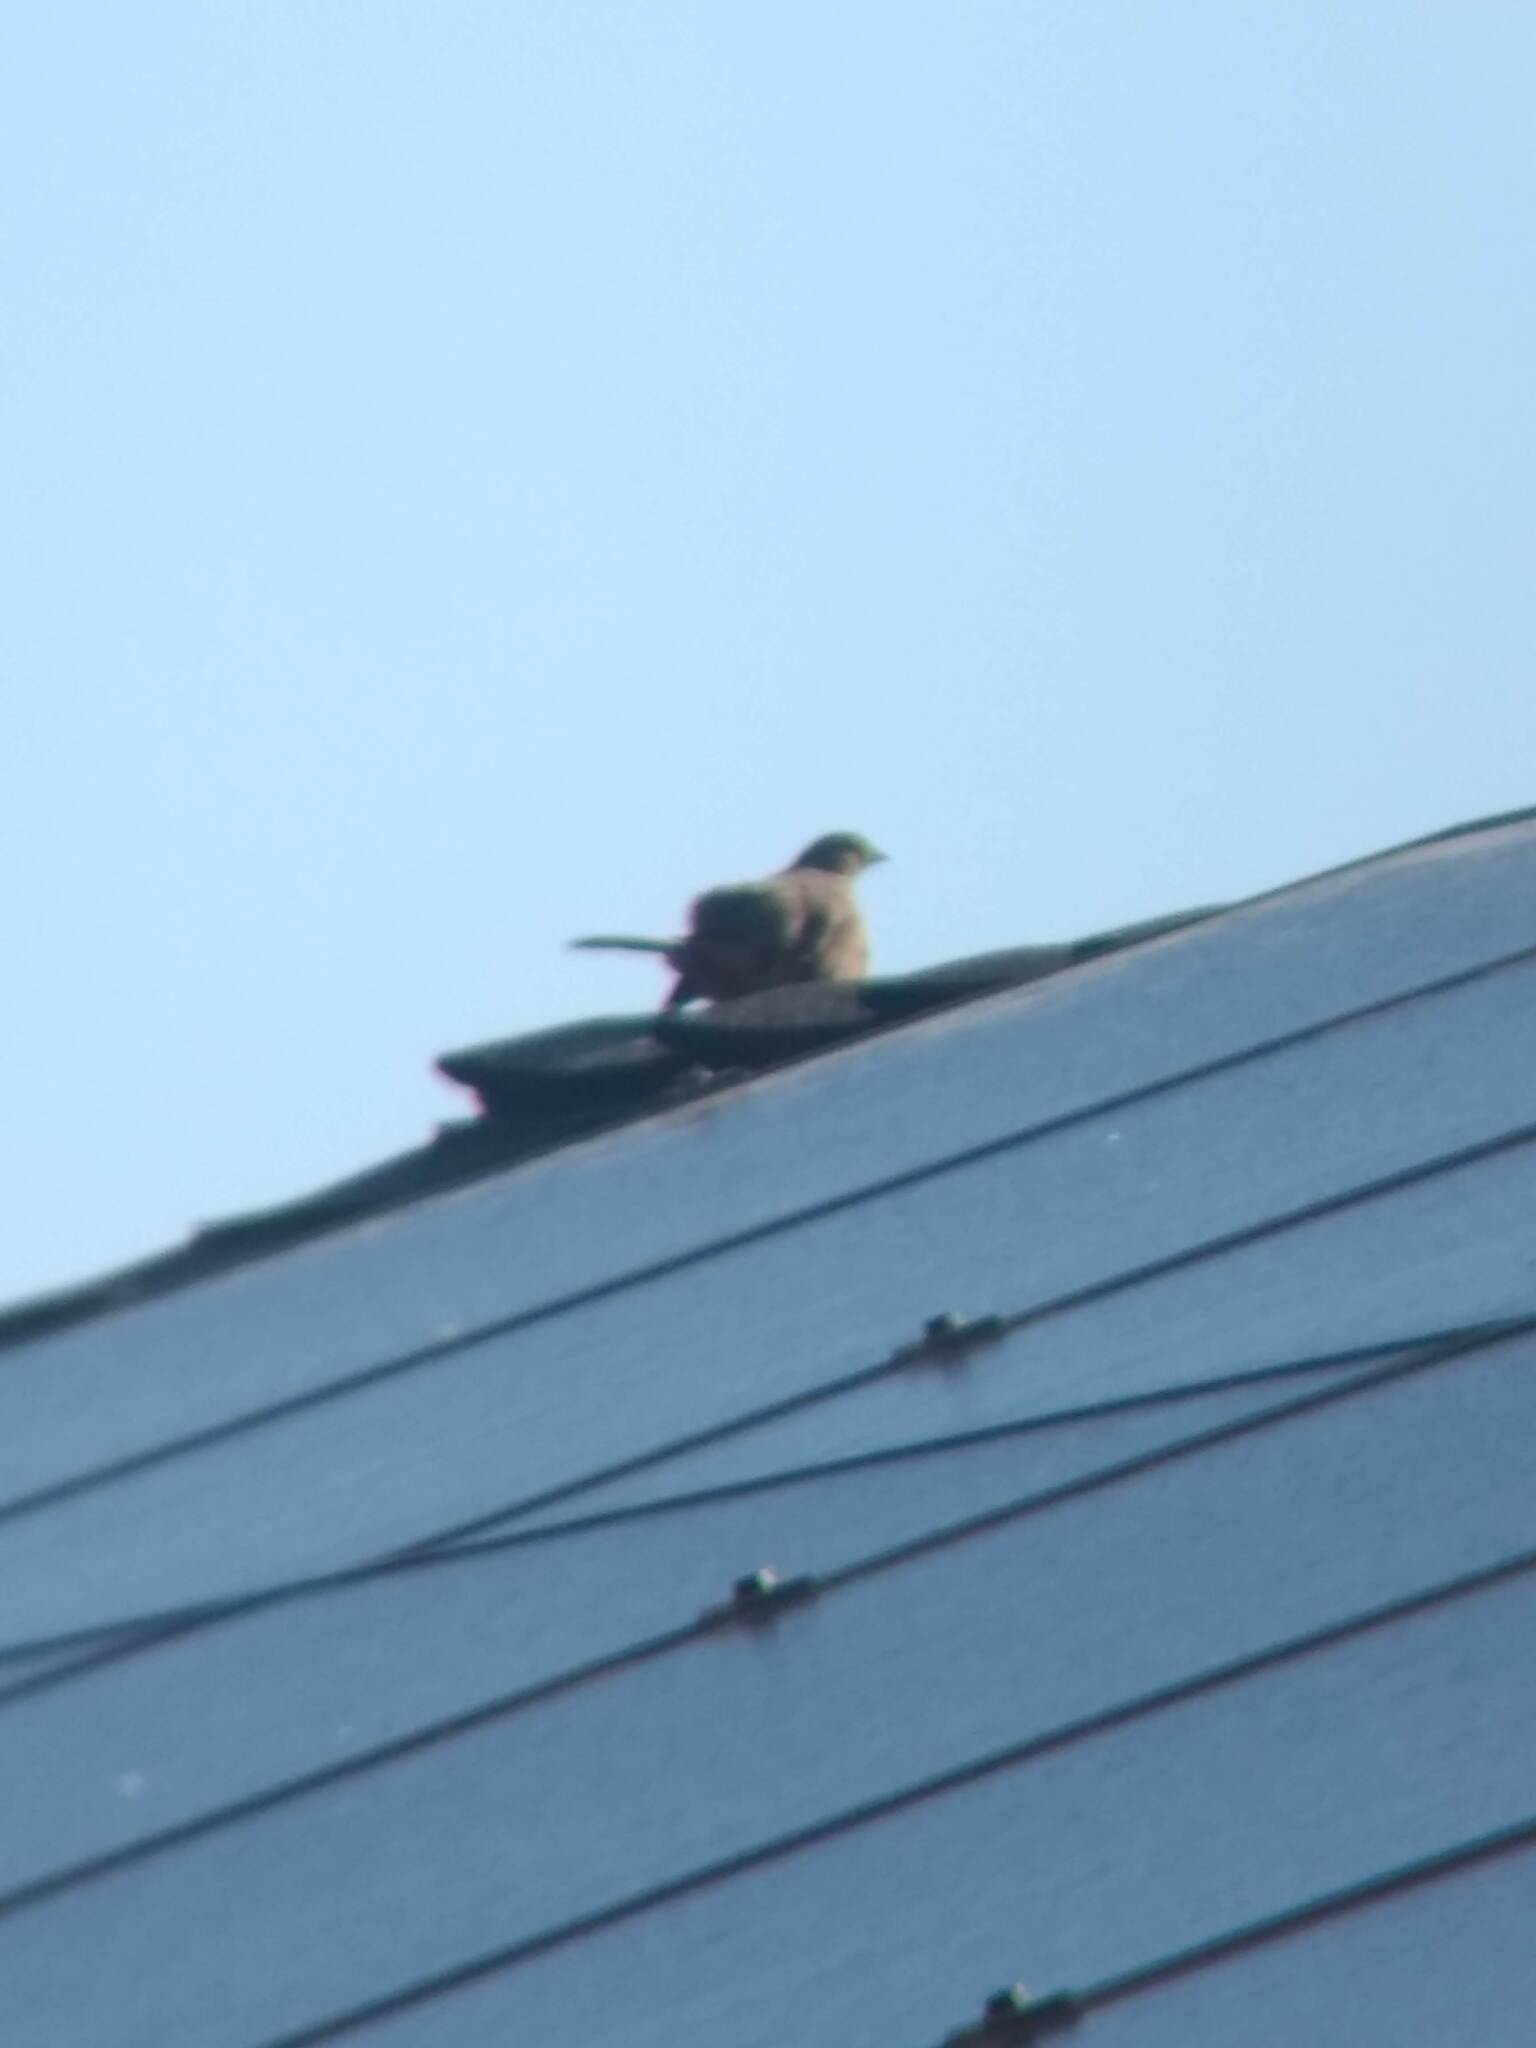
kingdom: Animalia
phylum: Chordata
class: Aves
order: Passeriformes
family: Passerellidae
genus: Melozone
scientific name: Melozone crissalis
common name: California towhee
